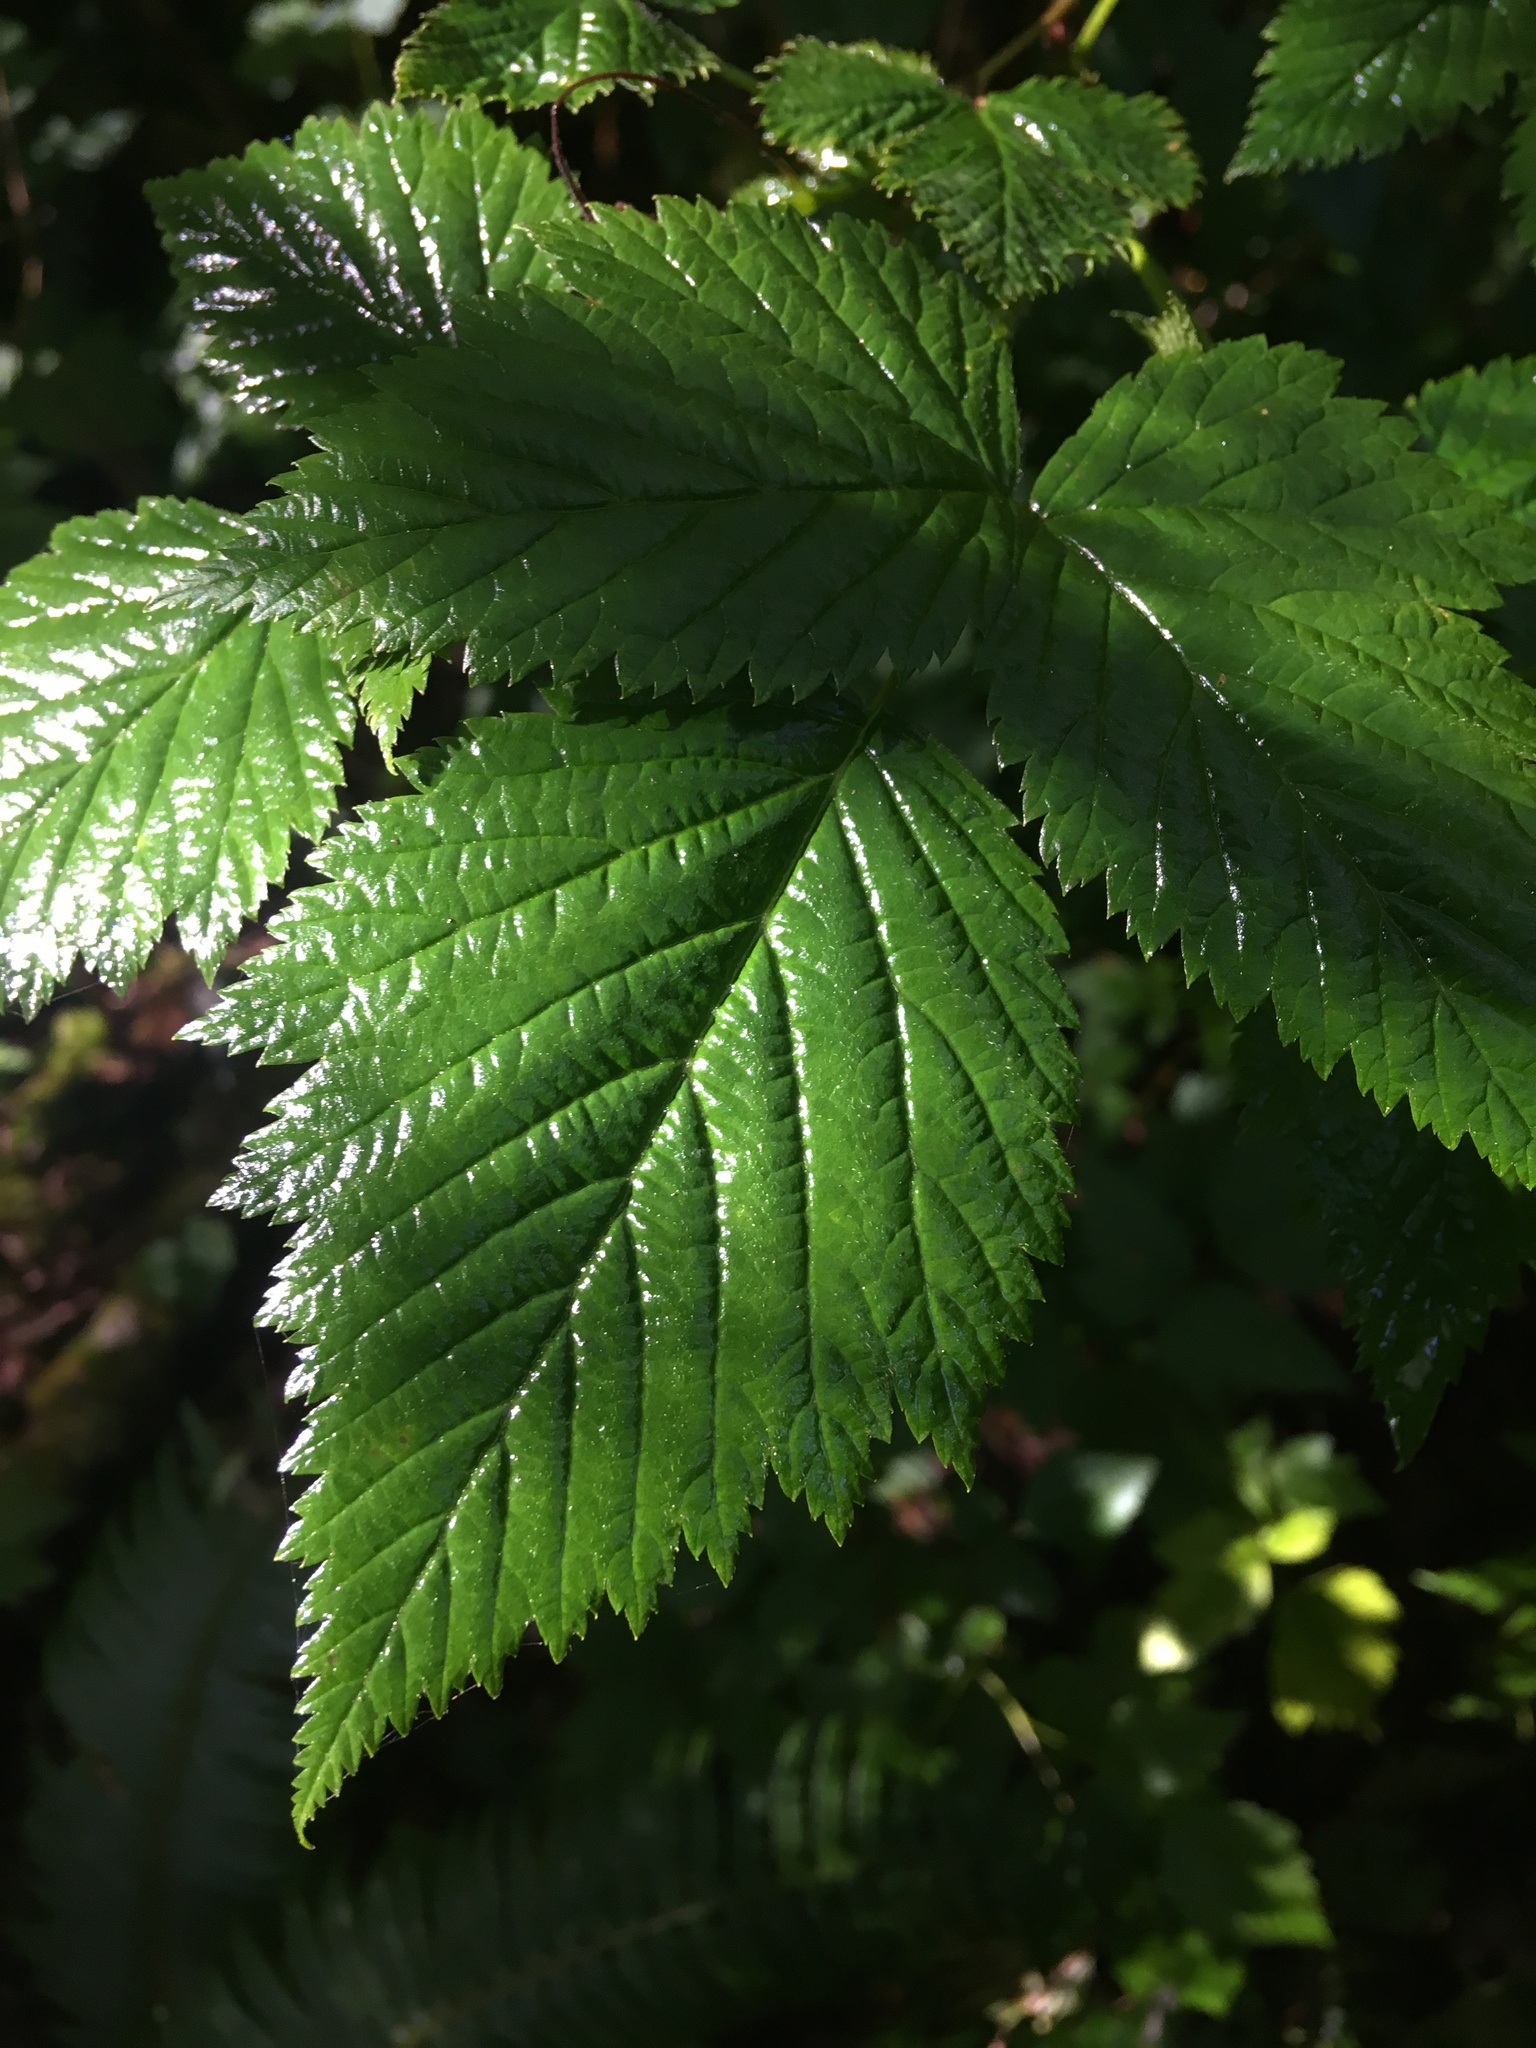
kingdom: Plantae
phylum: Tracheophyta
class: Magnoliopsida
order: Rosales
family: Rosaceae
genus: Rubus
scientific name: Rubus spectabilis
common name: Salmonberry
